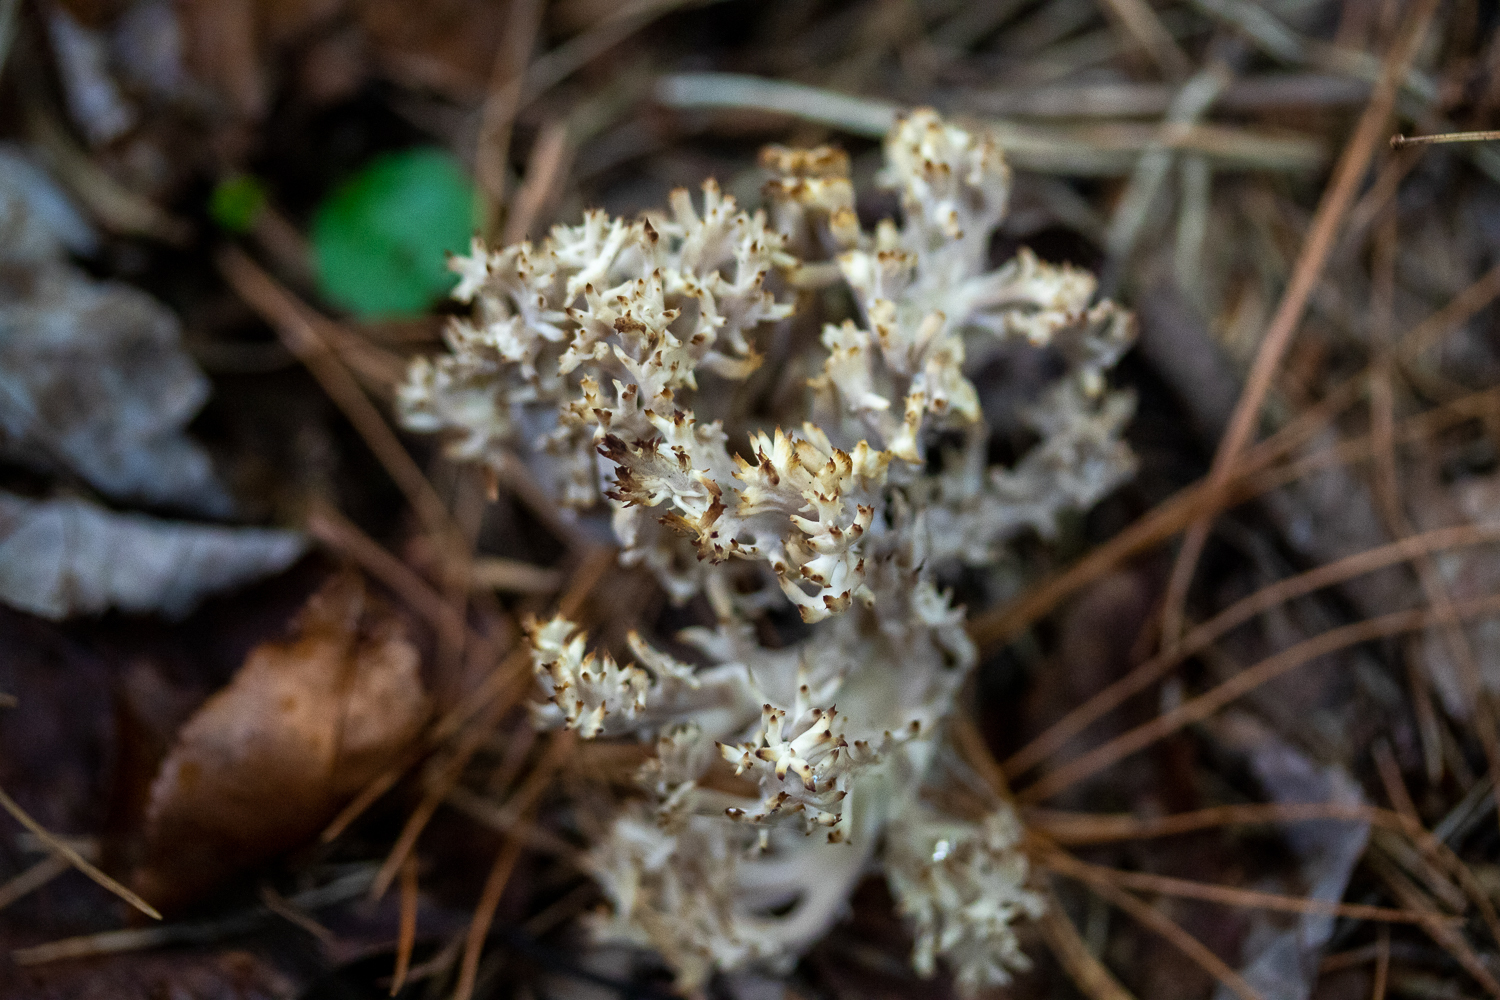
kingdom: Fungi
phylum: Basidiomycota
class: Agaricomycetes
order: Cantharellales
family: Hydnaceae
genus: Clavulina
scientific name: Clavulina coralloides
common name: Crested coral
